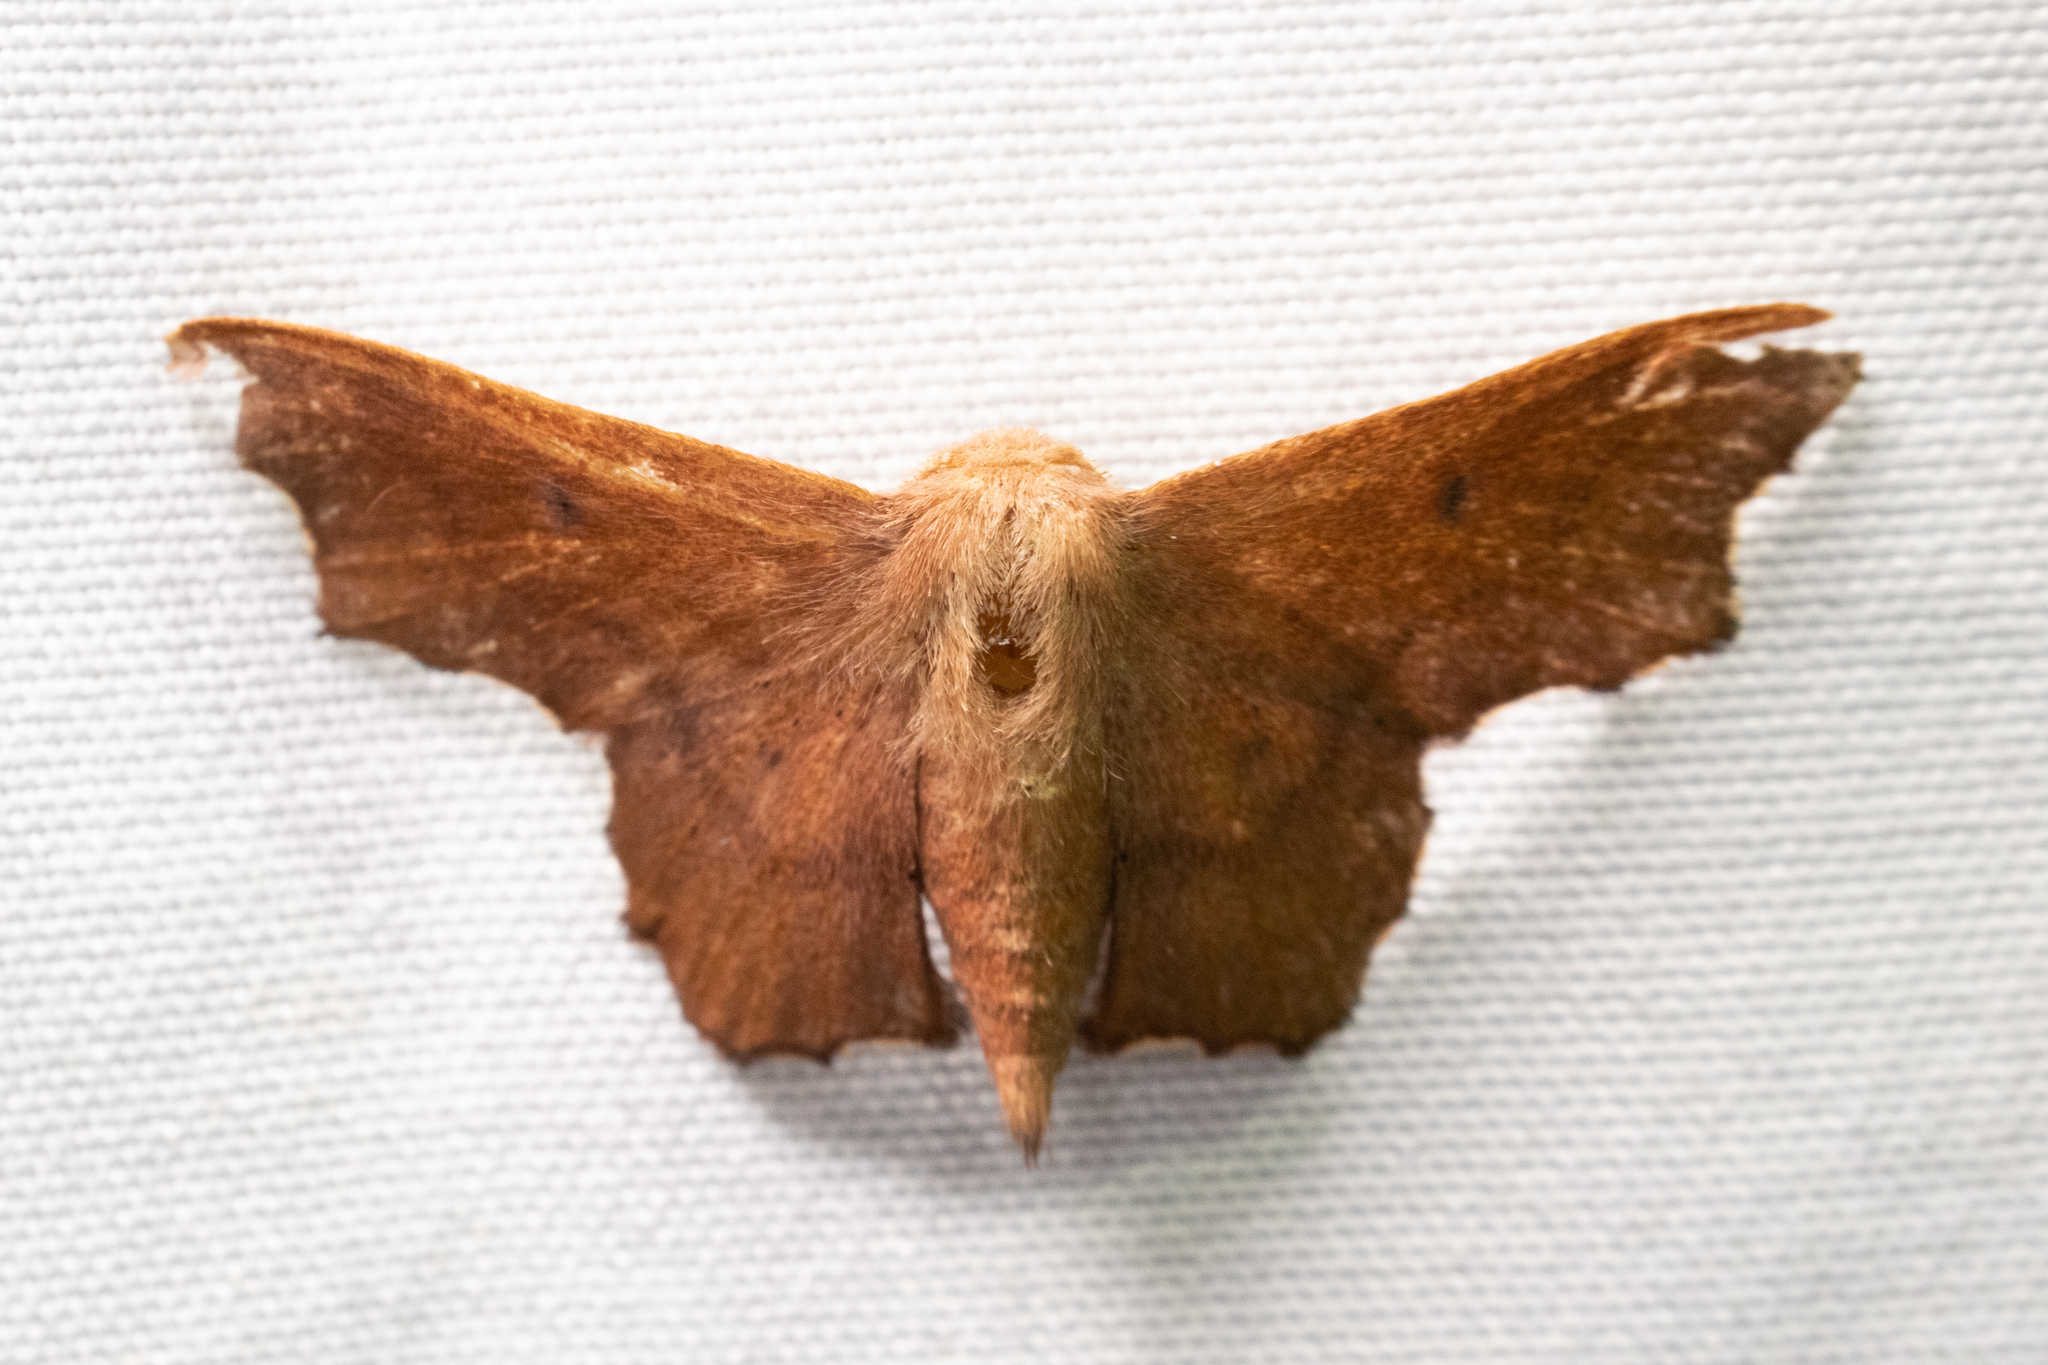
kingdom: Animalia
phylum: Arthropoda
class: Insecta
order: Lepidoptera
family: Mimallonidae
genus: Lacosoma
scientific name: Lacosoma chiridota
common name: Scalloped sack-bearer moth
